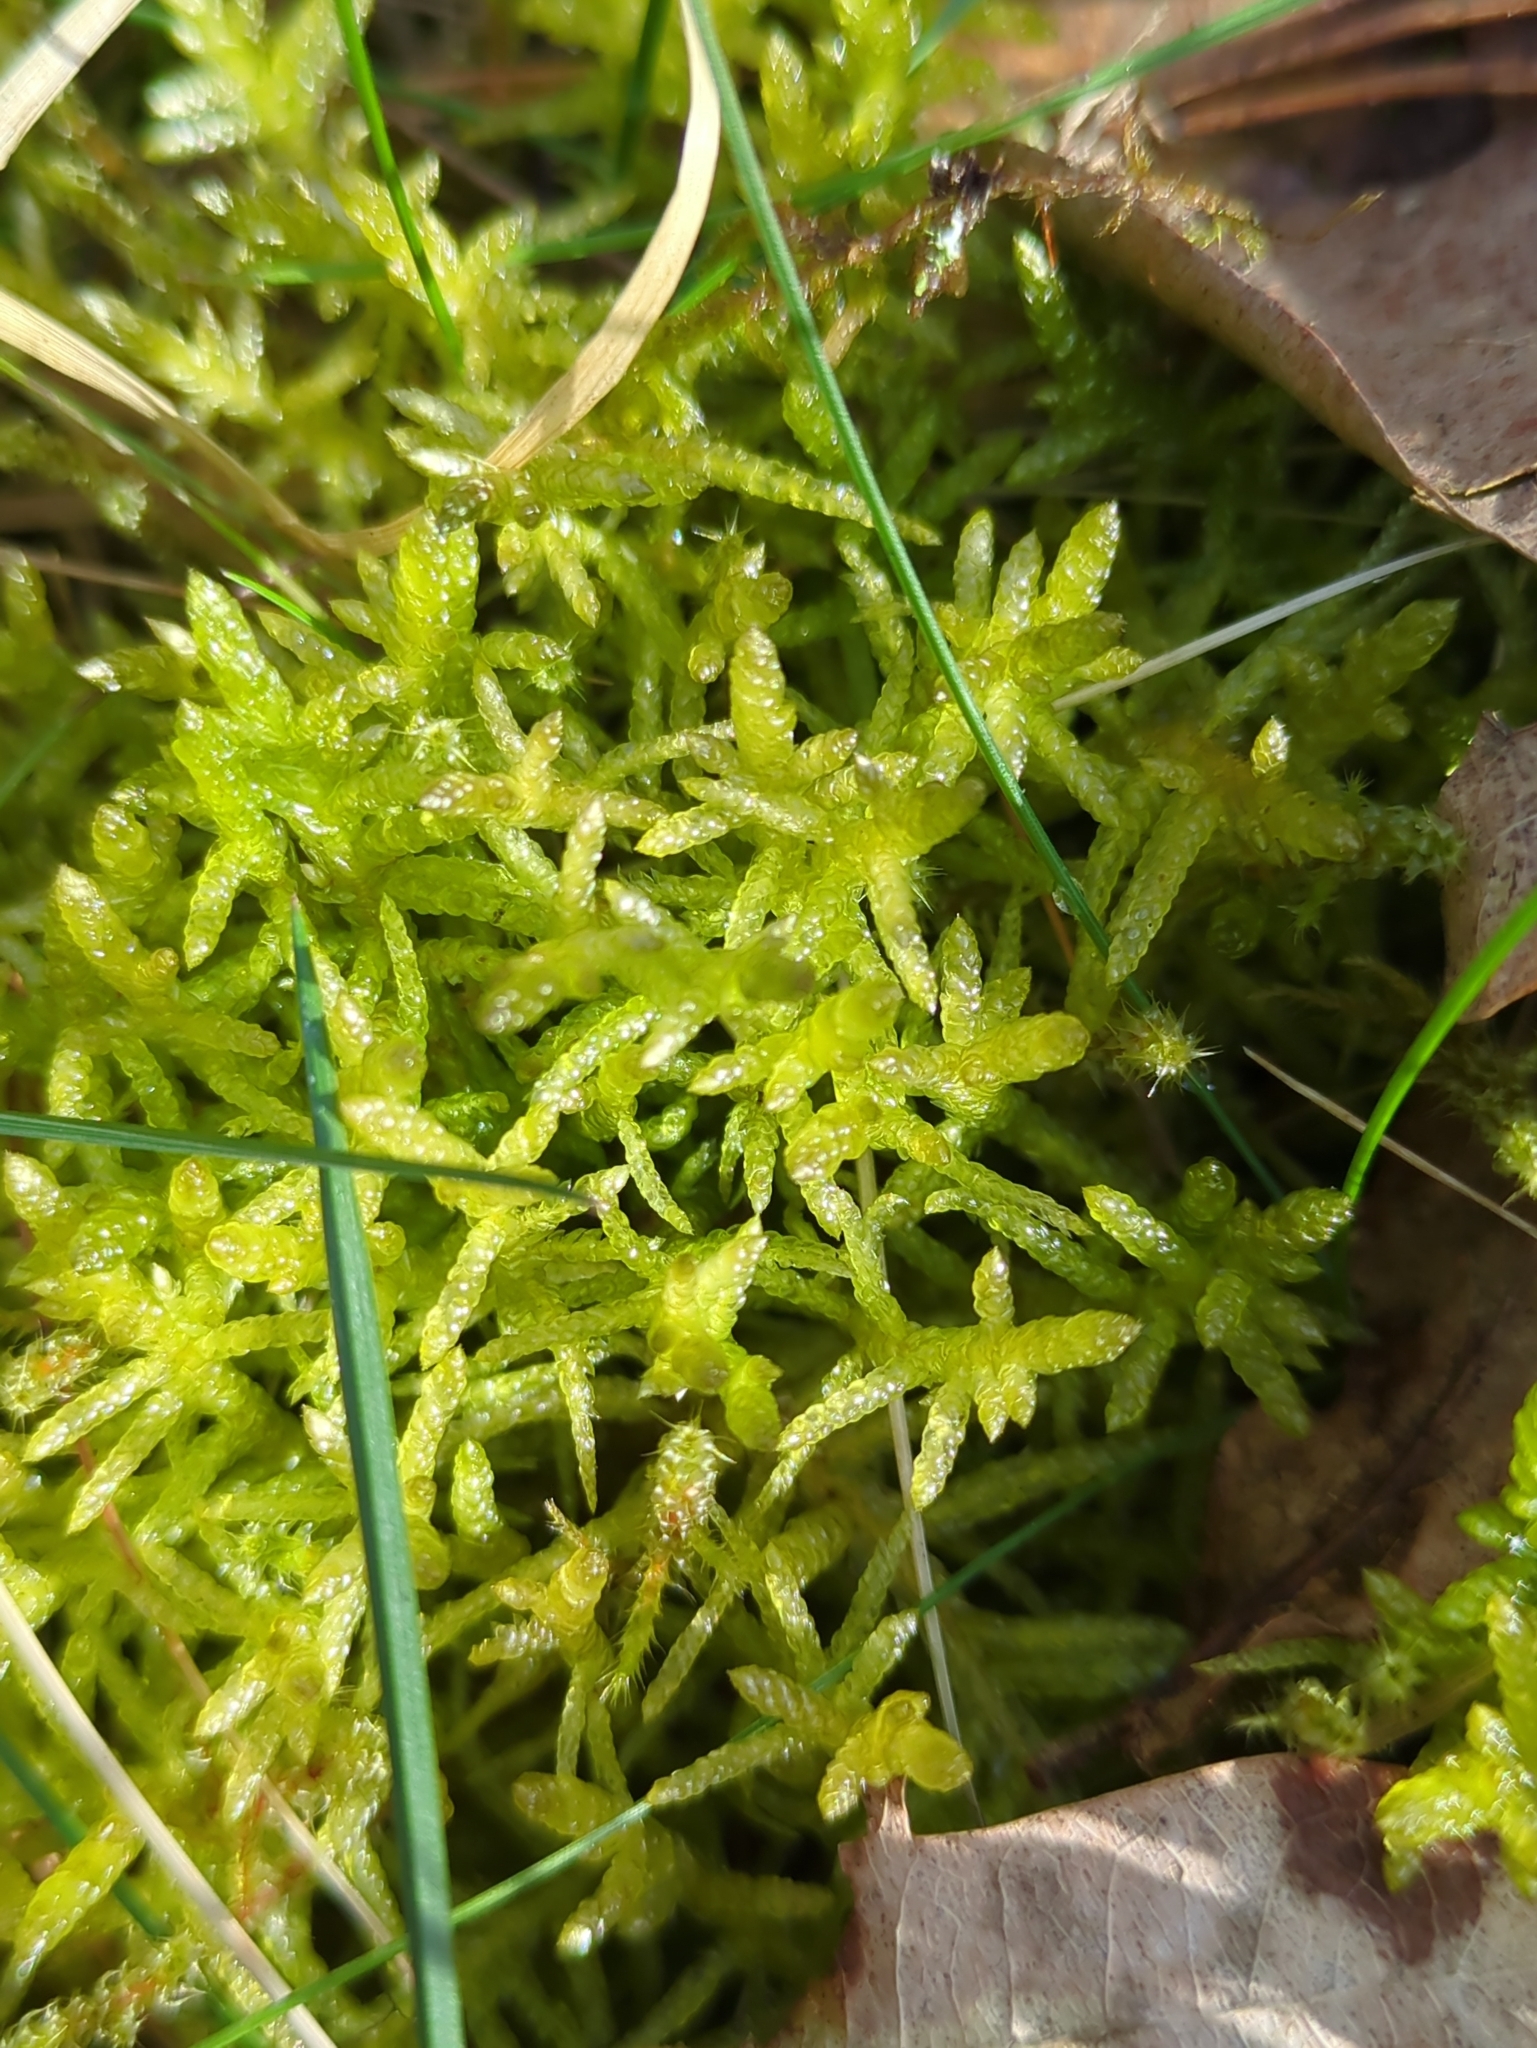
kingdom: Plantae
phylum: Bryophyta
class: Bryopsida
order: Hypnales
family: Brachytheciaceae
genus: Pseudoscleropodium
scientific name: Pseudoscleropodium purum
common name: Neat feather-moss
